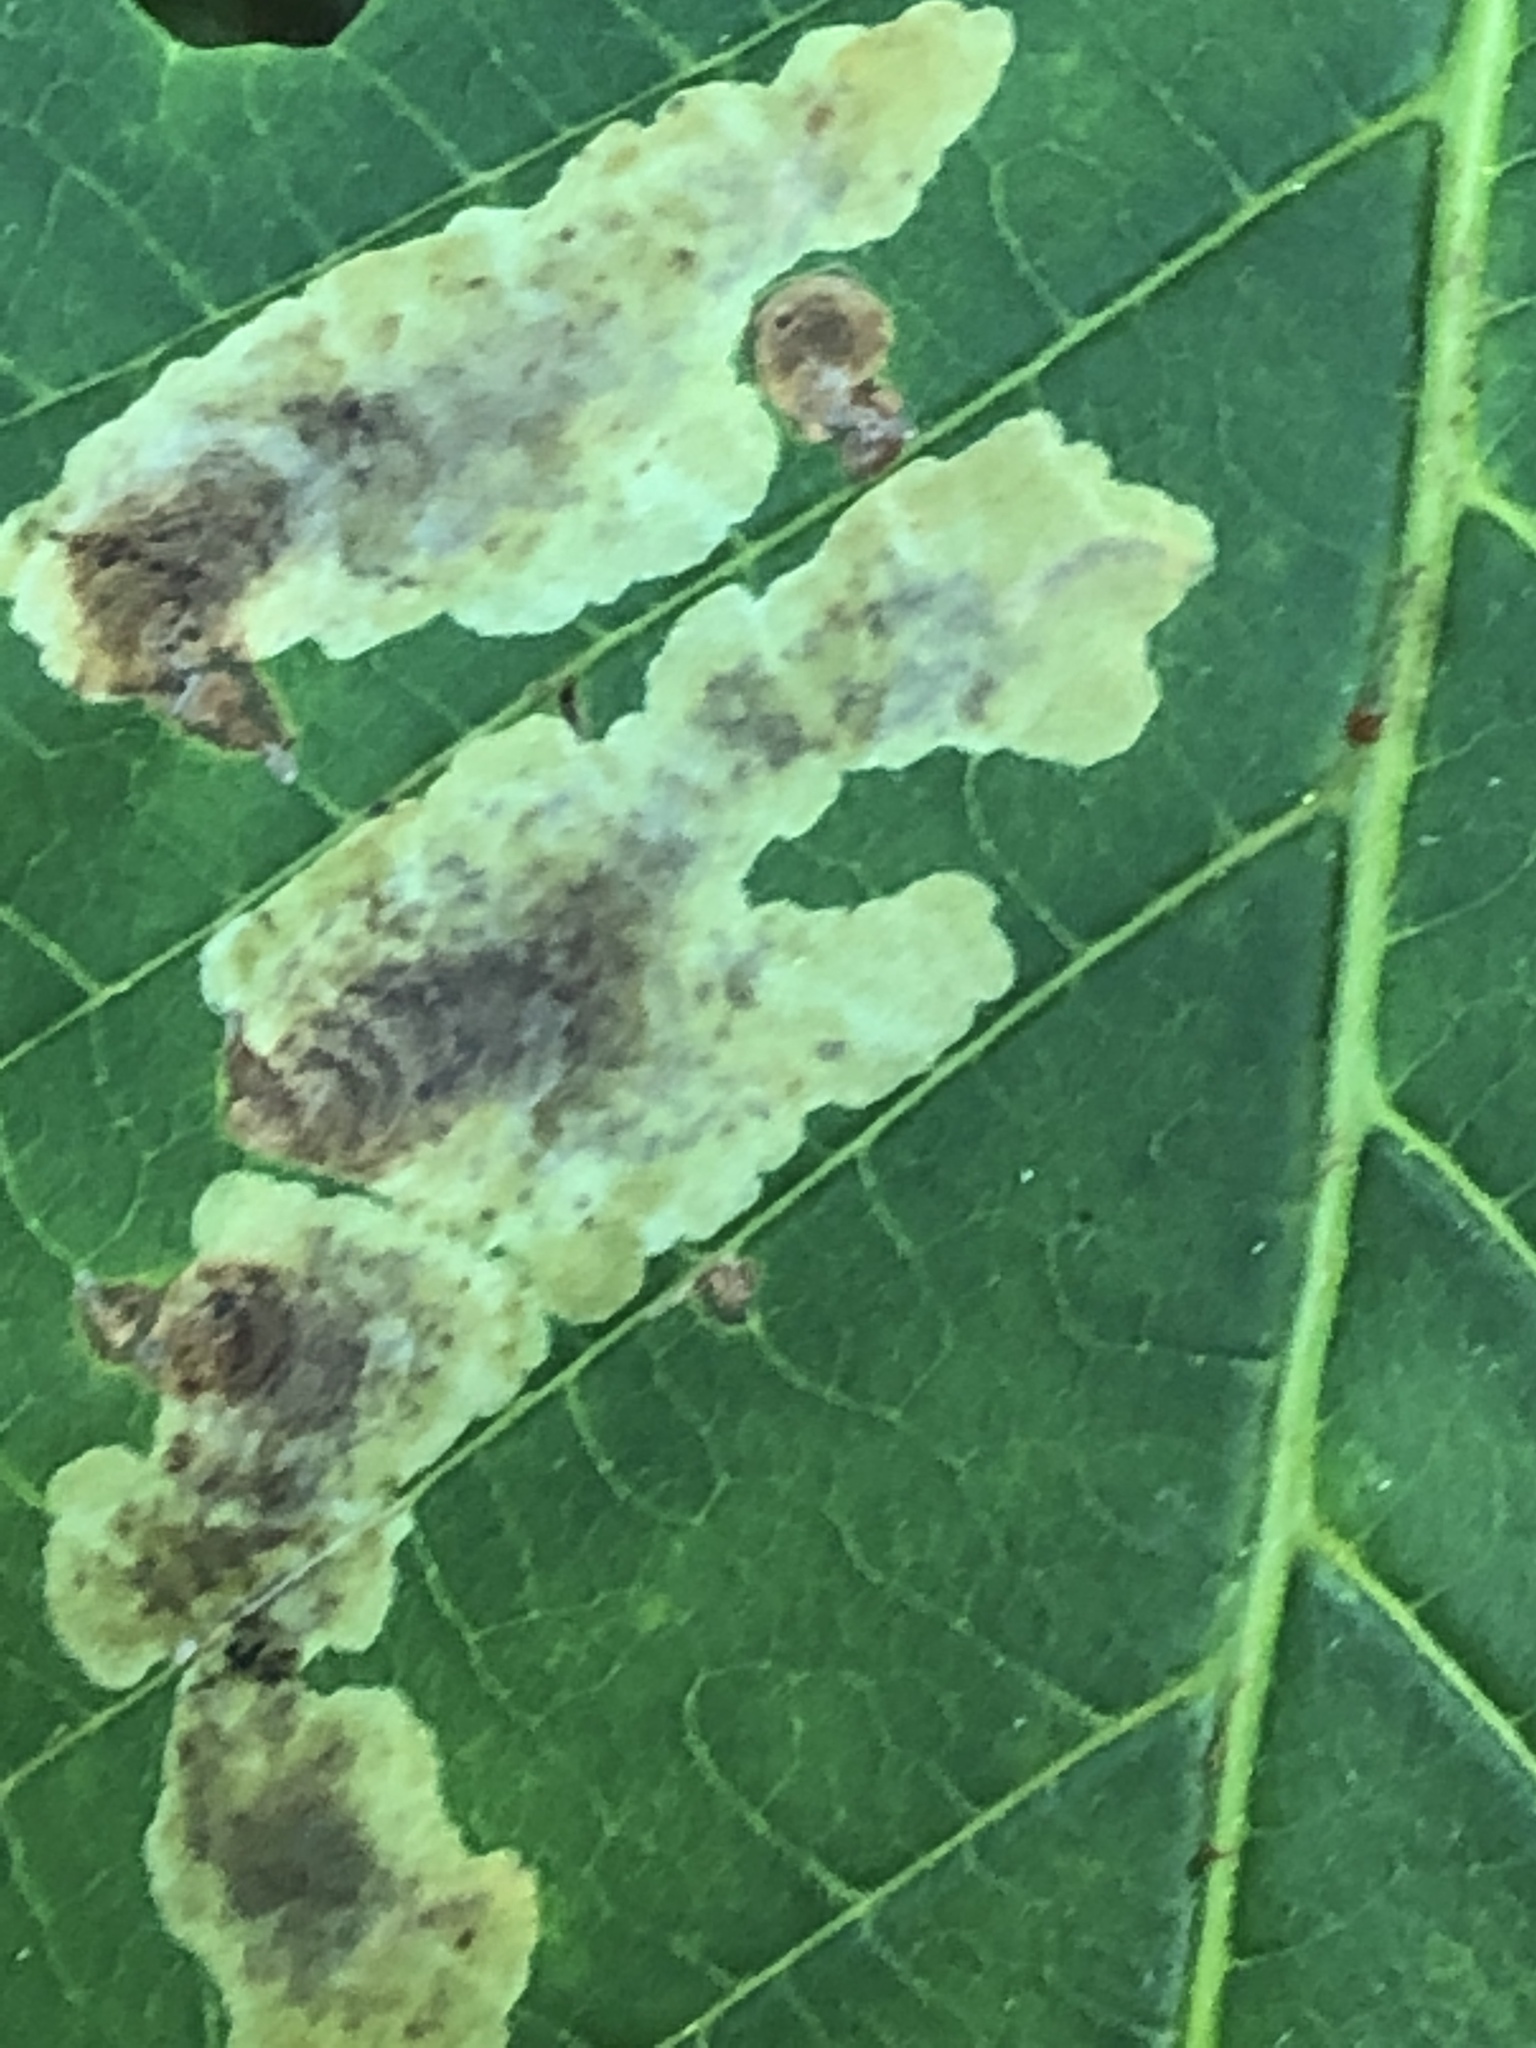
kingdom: Animalia
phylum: Arthropoda
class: Insecta
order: Lepidoptera
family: Gracillariidae
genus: Cameraria
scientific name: Cameraria ohridella
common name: Horse-chestnut leaf-miner
